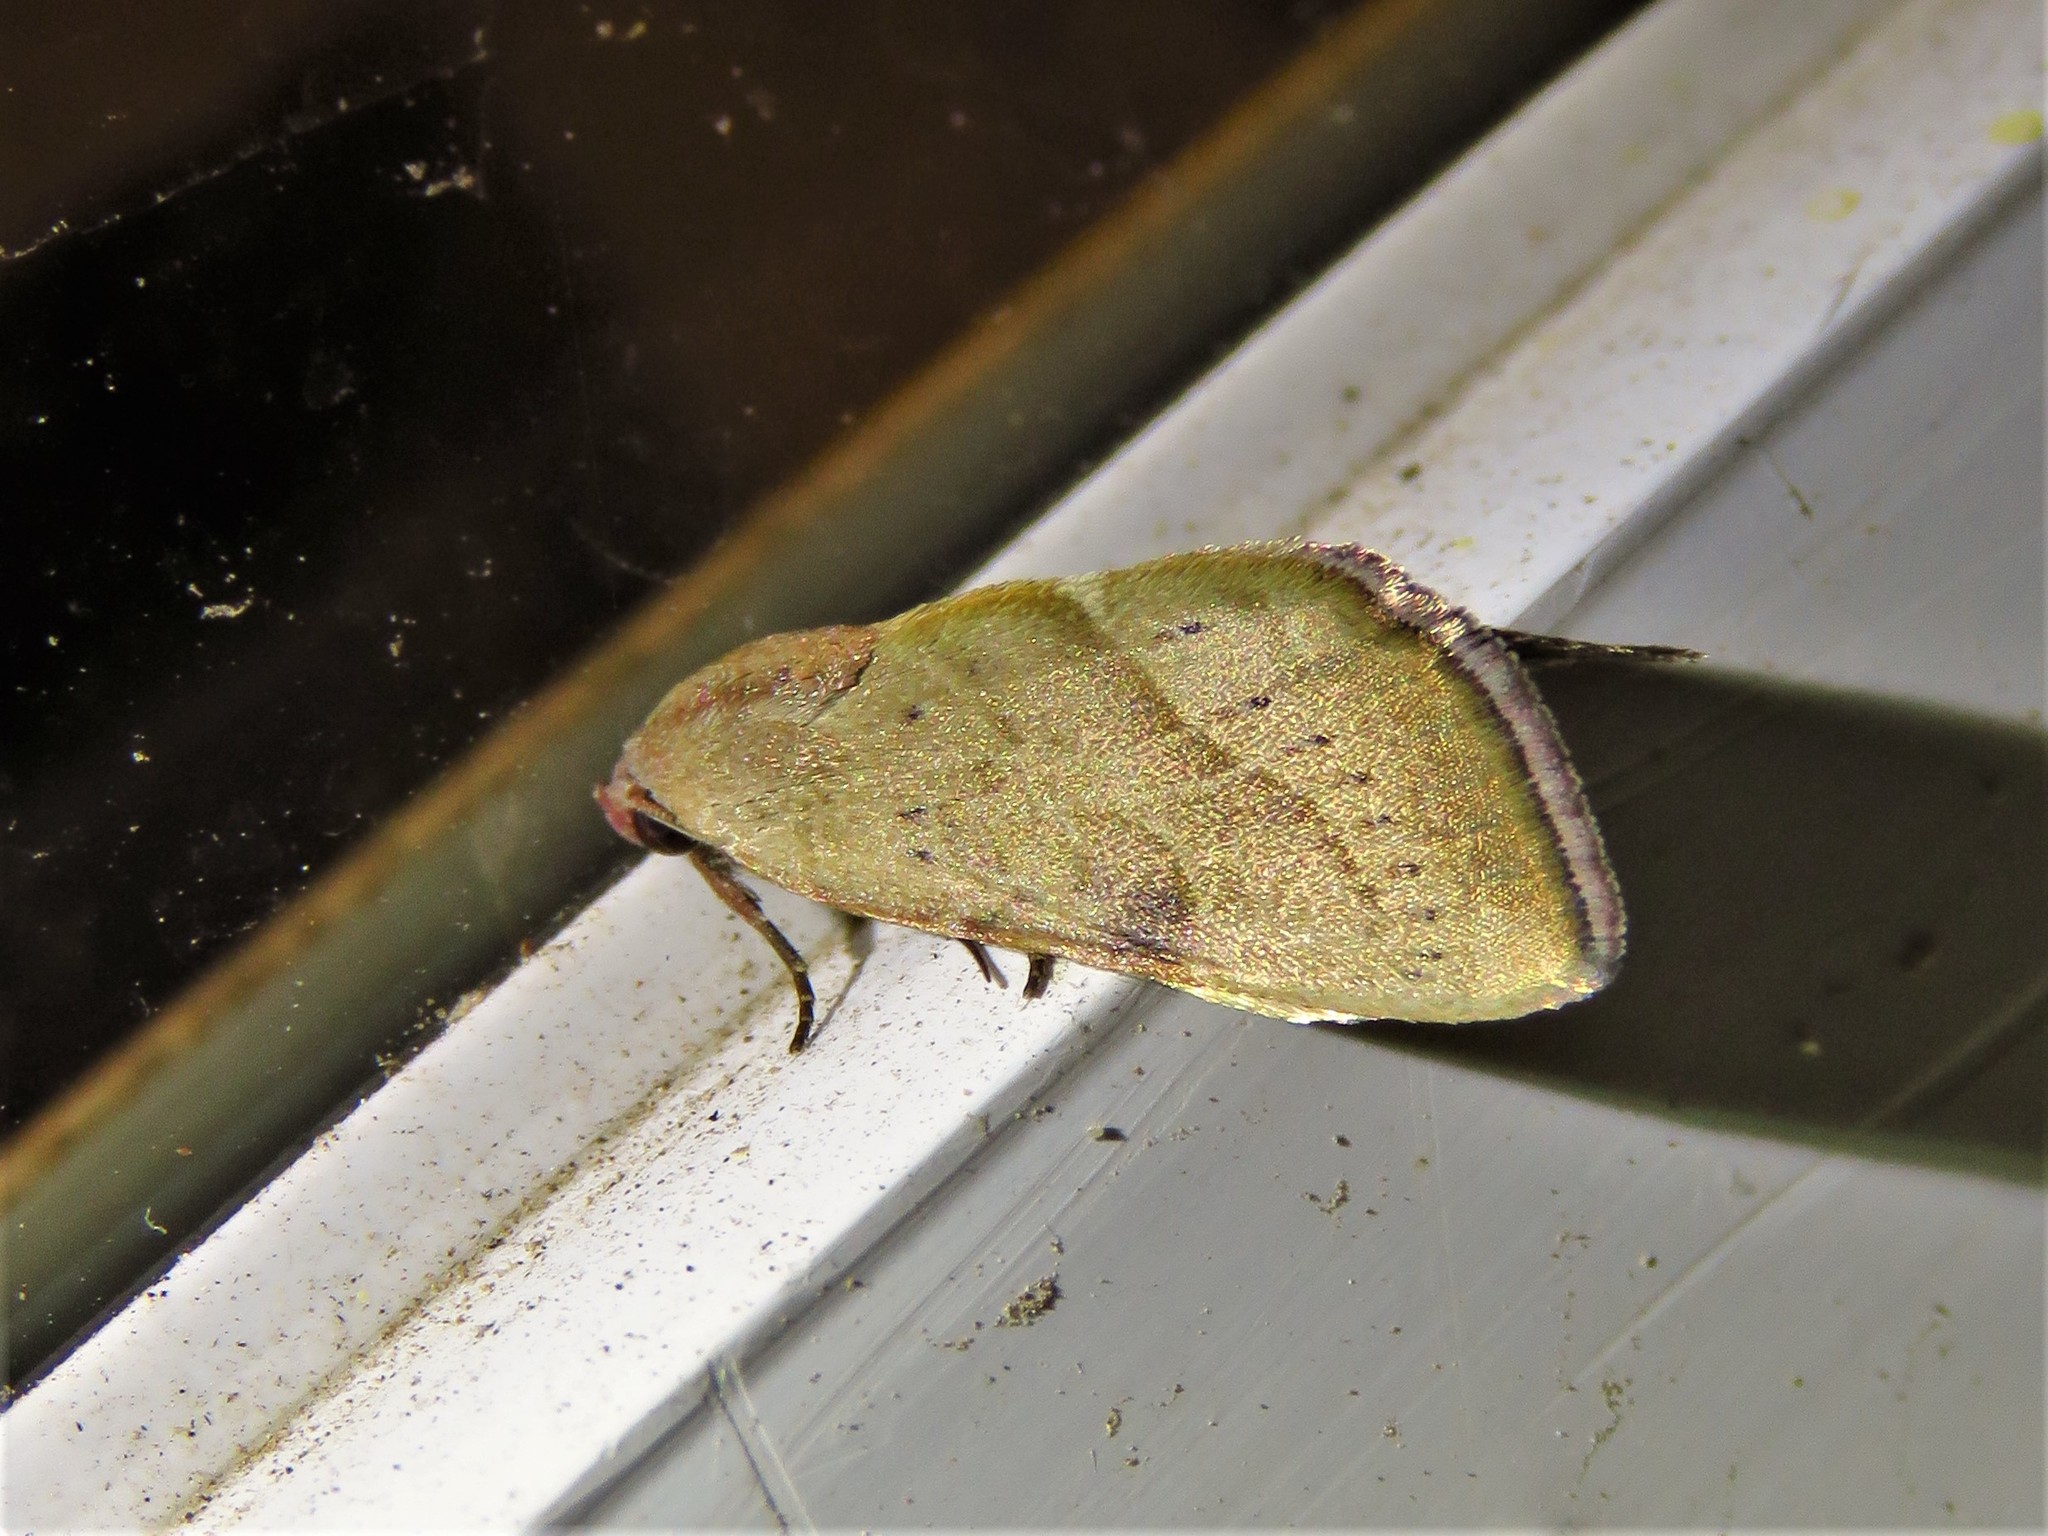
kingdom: Animalia
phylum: Arthropoda
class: Insecta
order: Lepidoptera
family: Noctuidae
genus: Galgula
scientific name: Galgula partita
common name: Wedgeling
